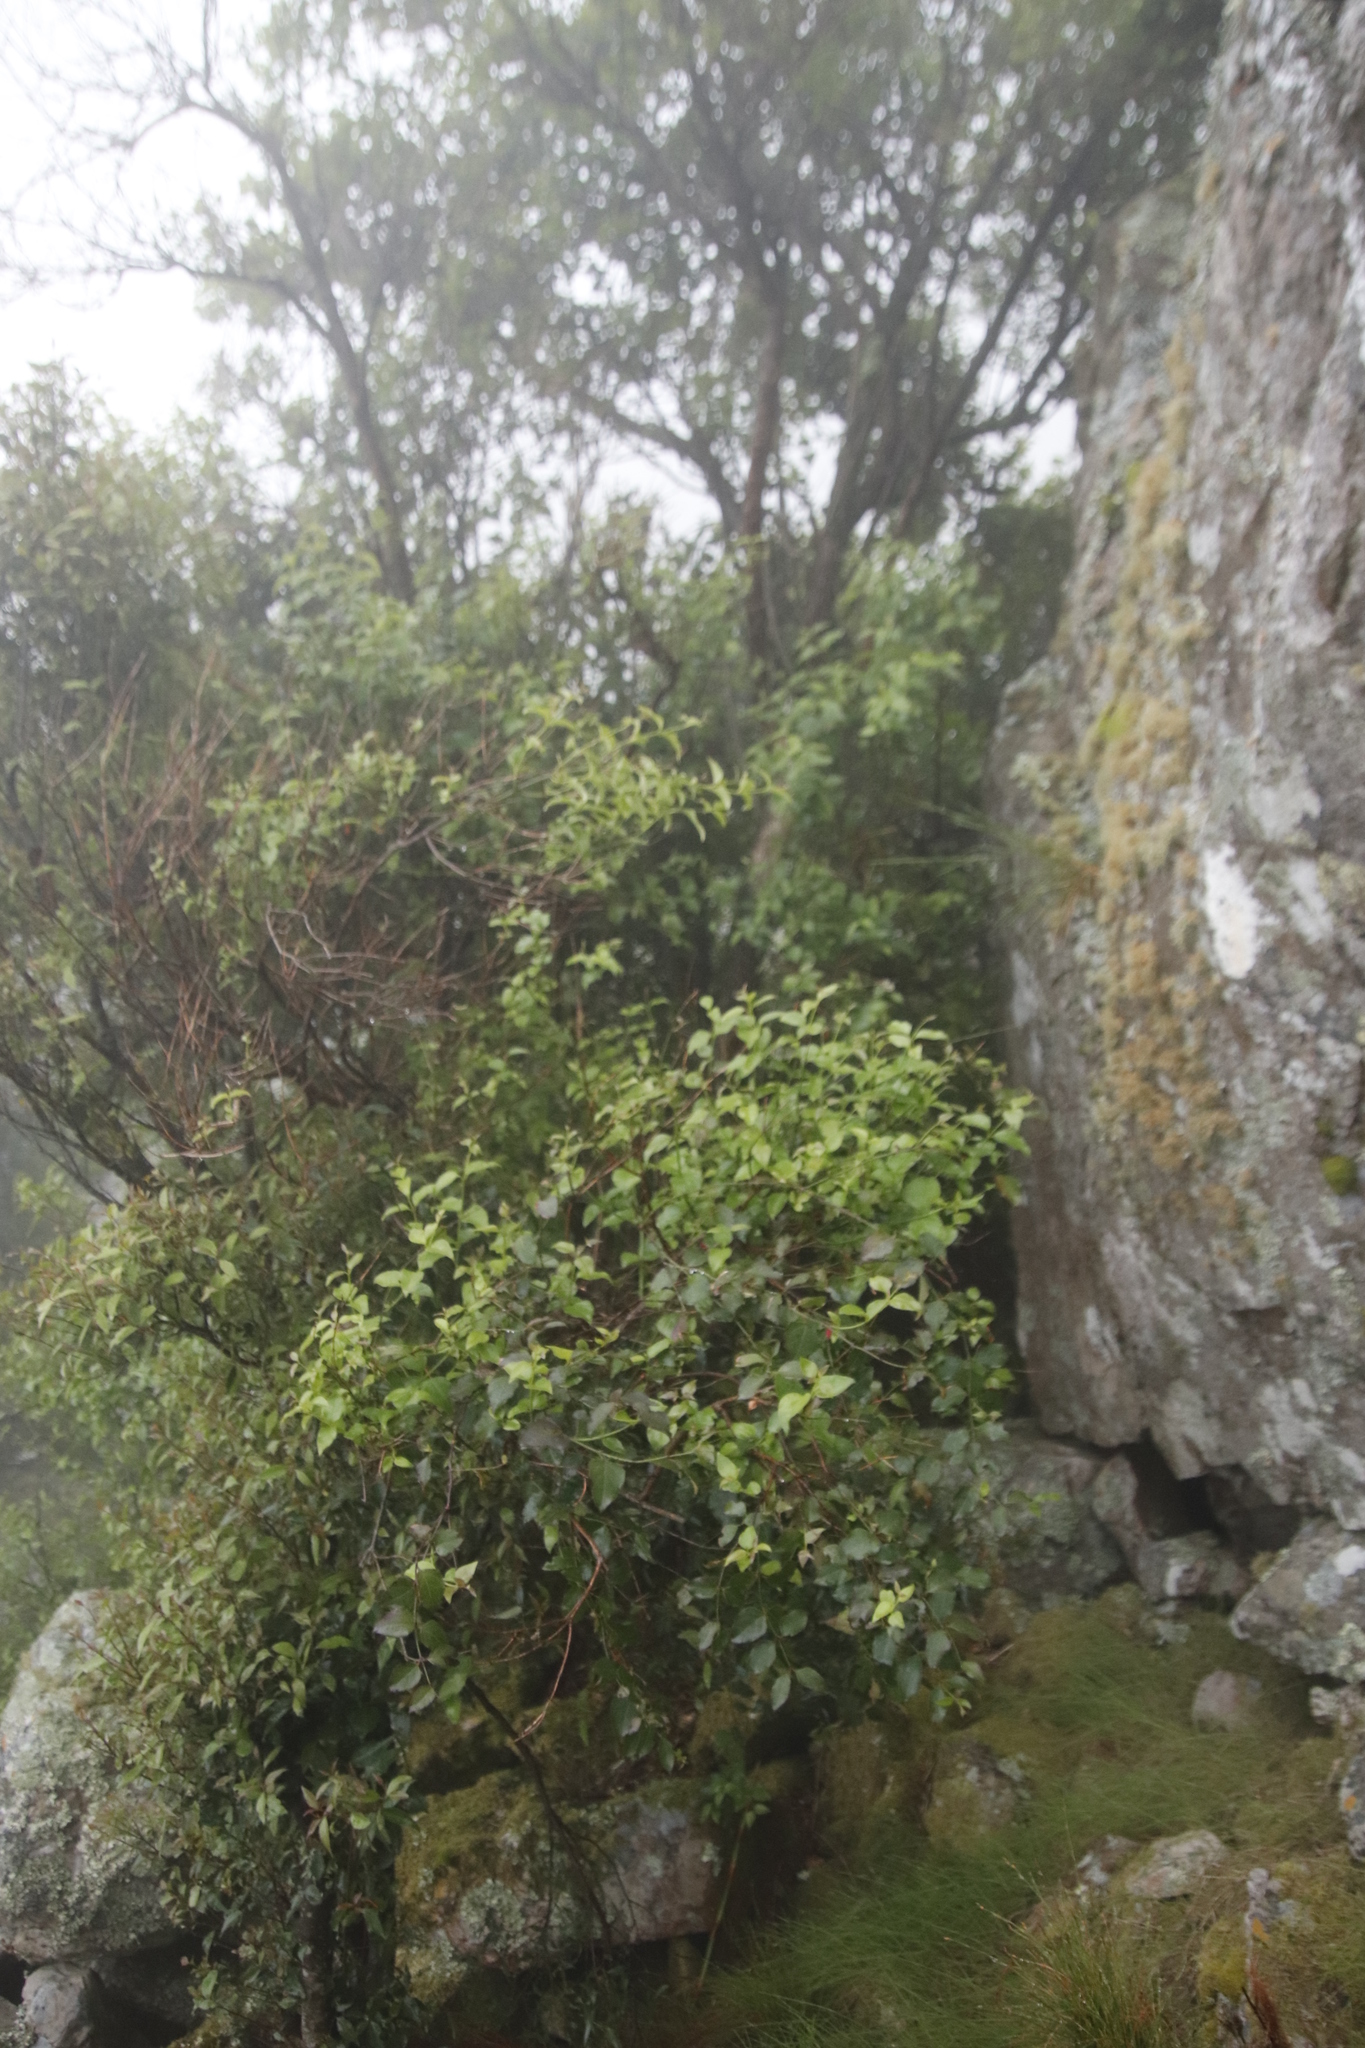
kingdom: Plantae
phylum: Tracheophyta
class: Magnoliopsida
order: Lamiales
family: Stilbaceae
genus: Halleria
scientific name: Halleria lucida
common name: Tree fuschia
